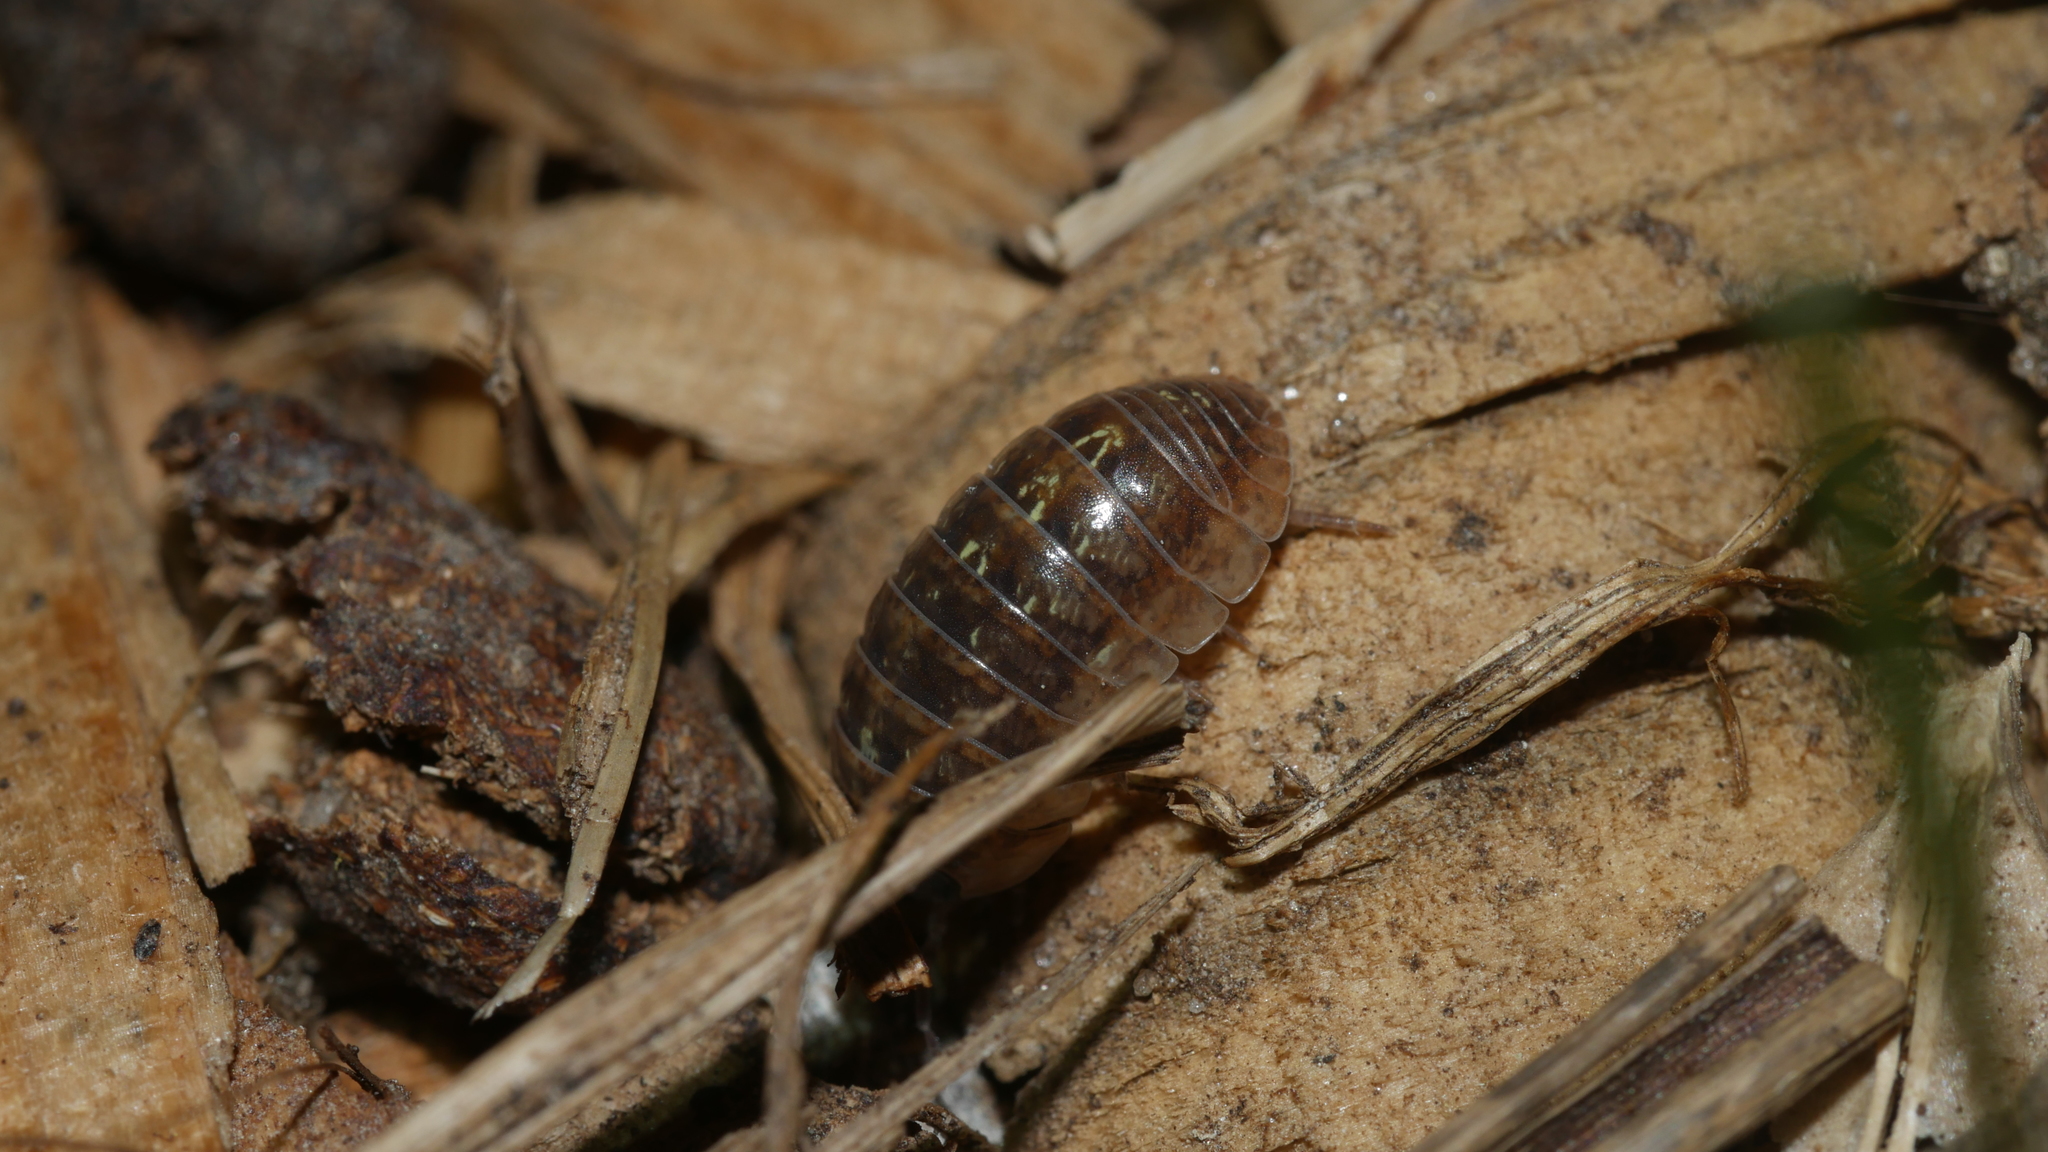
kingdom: Animalia
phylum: Arthropoda
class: Malacostraca
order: Isopoda
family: Armadillidiidae
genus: Armadillidium
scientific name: Armadillidium vulgare
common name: Common pill woodlouse
